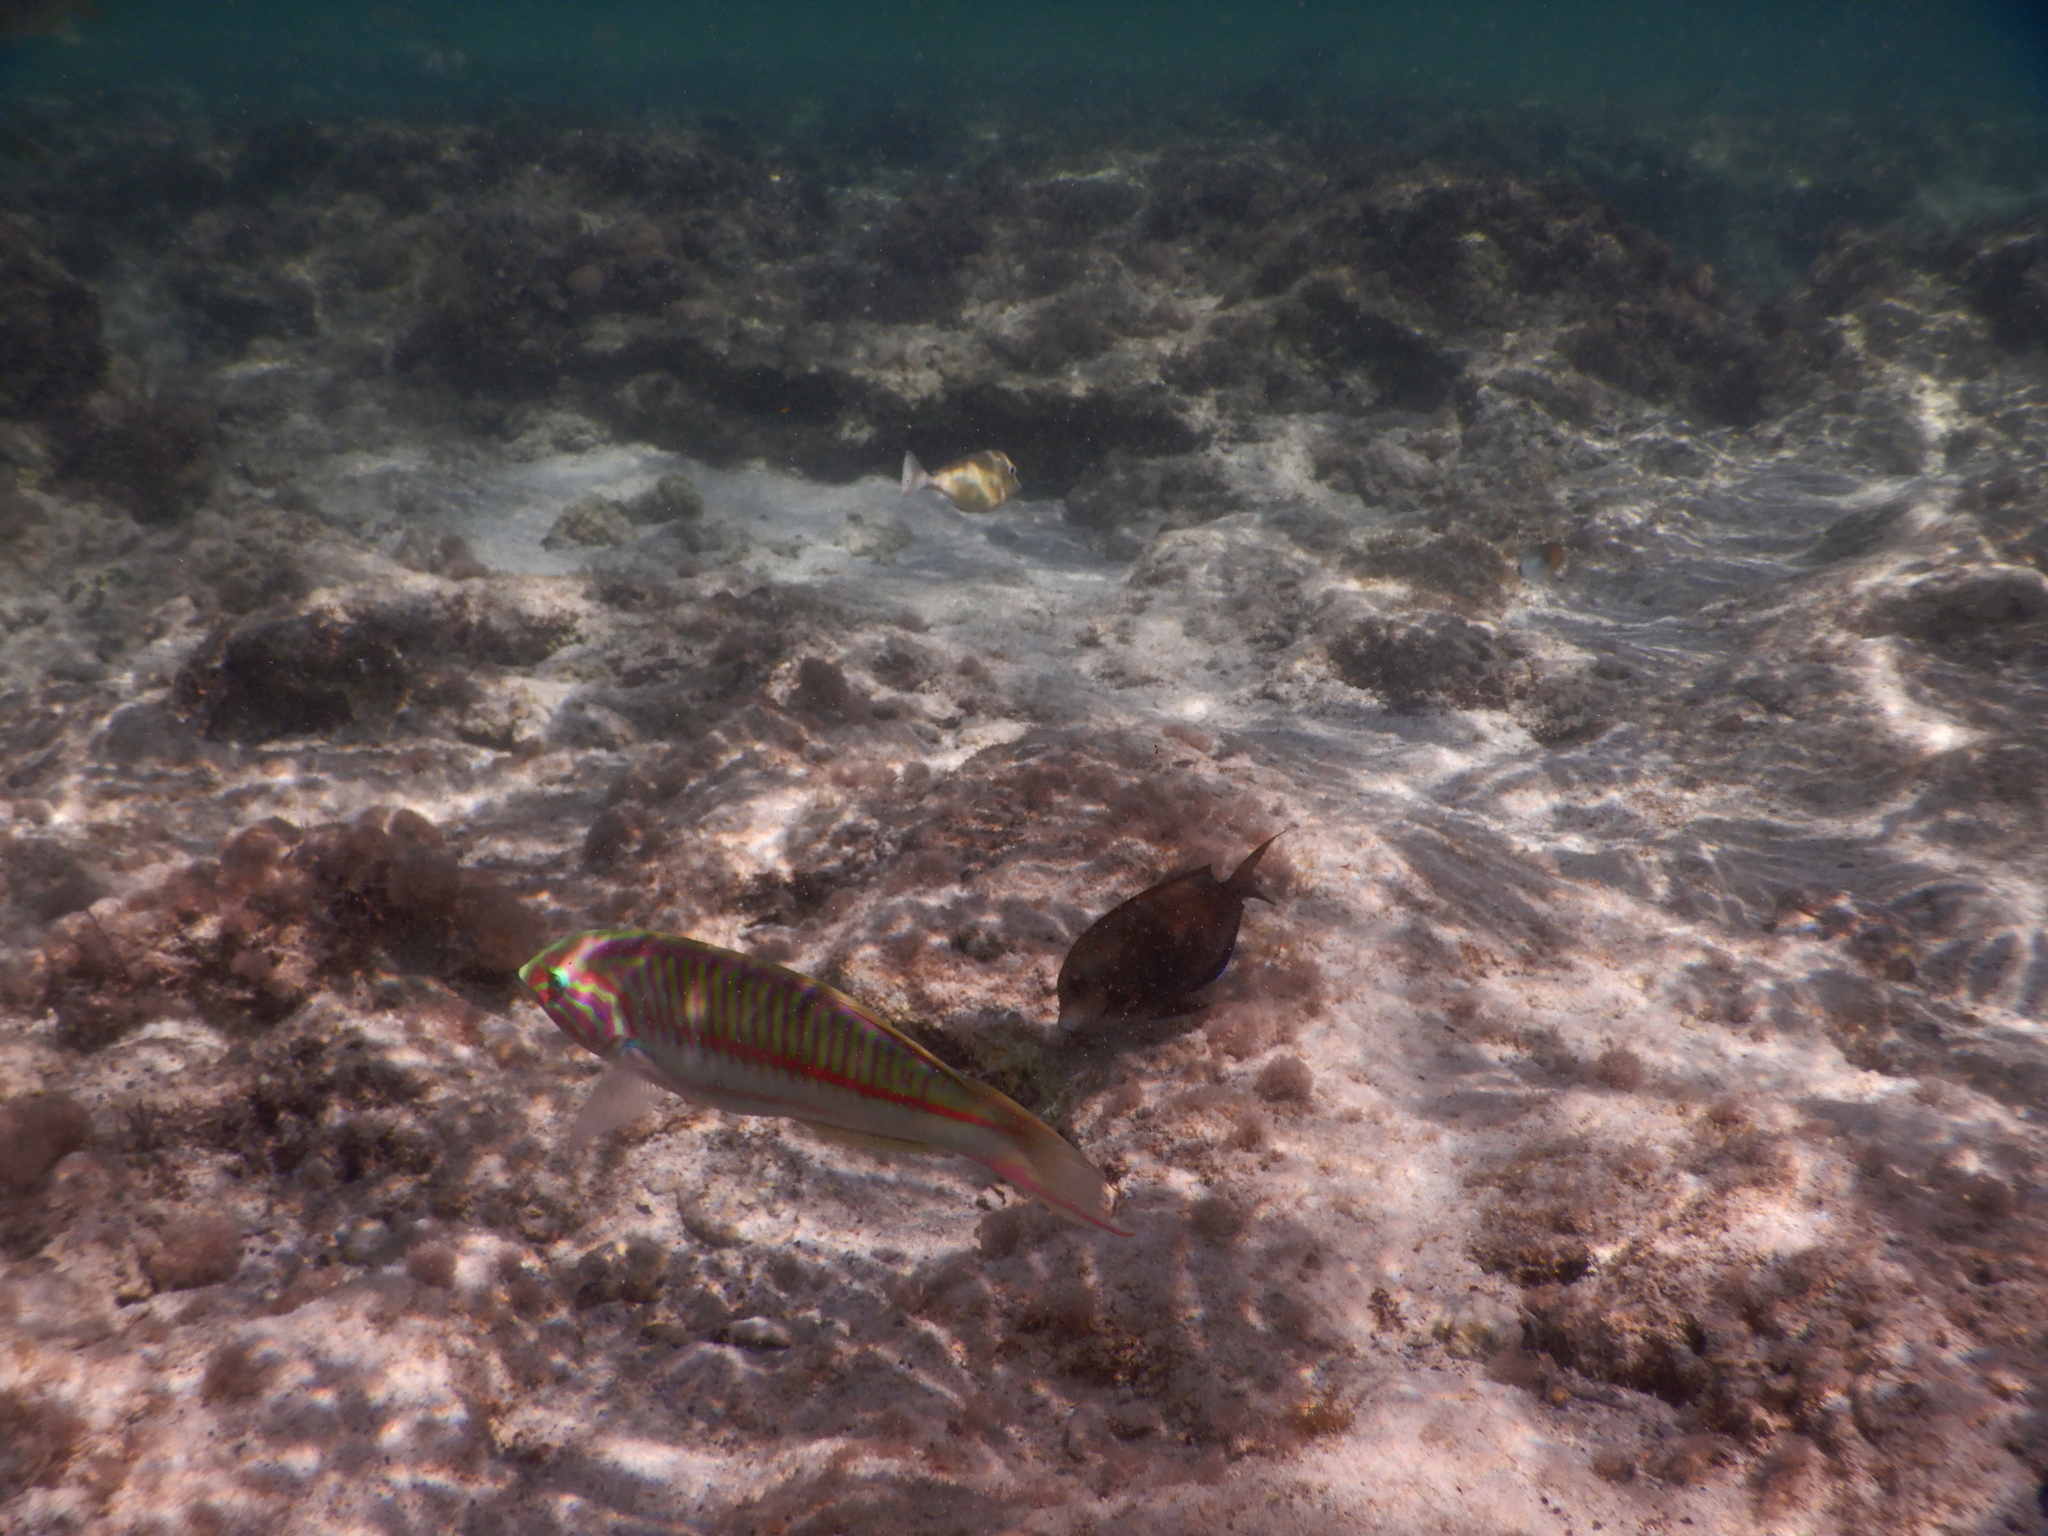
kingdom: Animalia
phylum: Chordata
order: Perciformes
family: Acanthuridae
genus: Acanthurus
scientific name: Acanthurus nigrofuscus
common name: Blackspot surgeonfish
